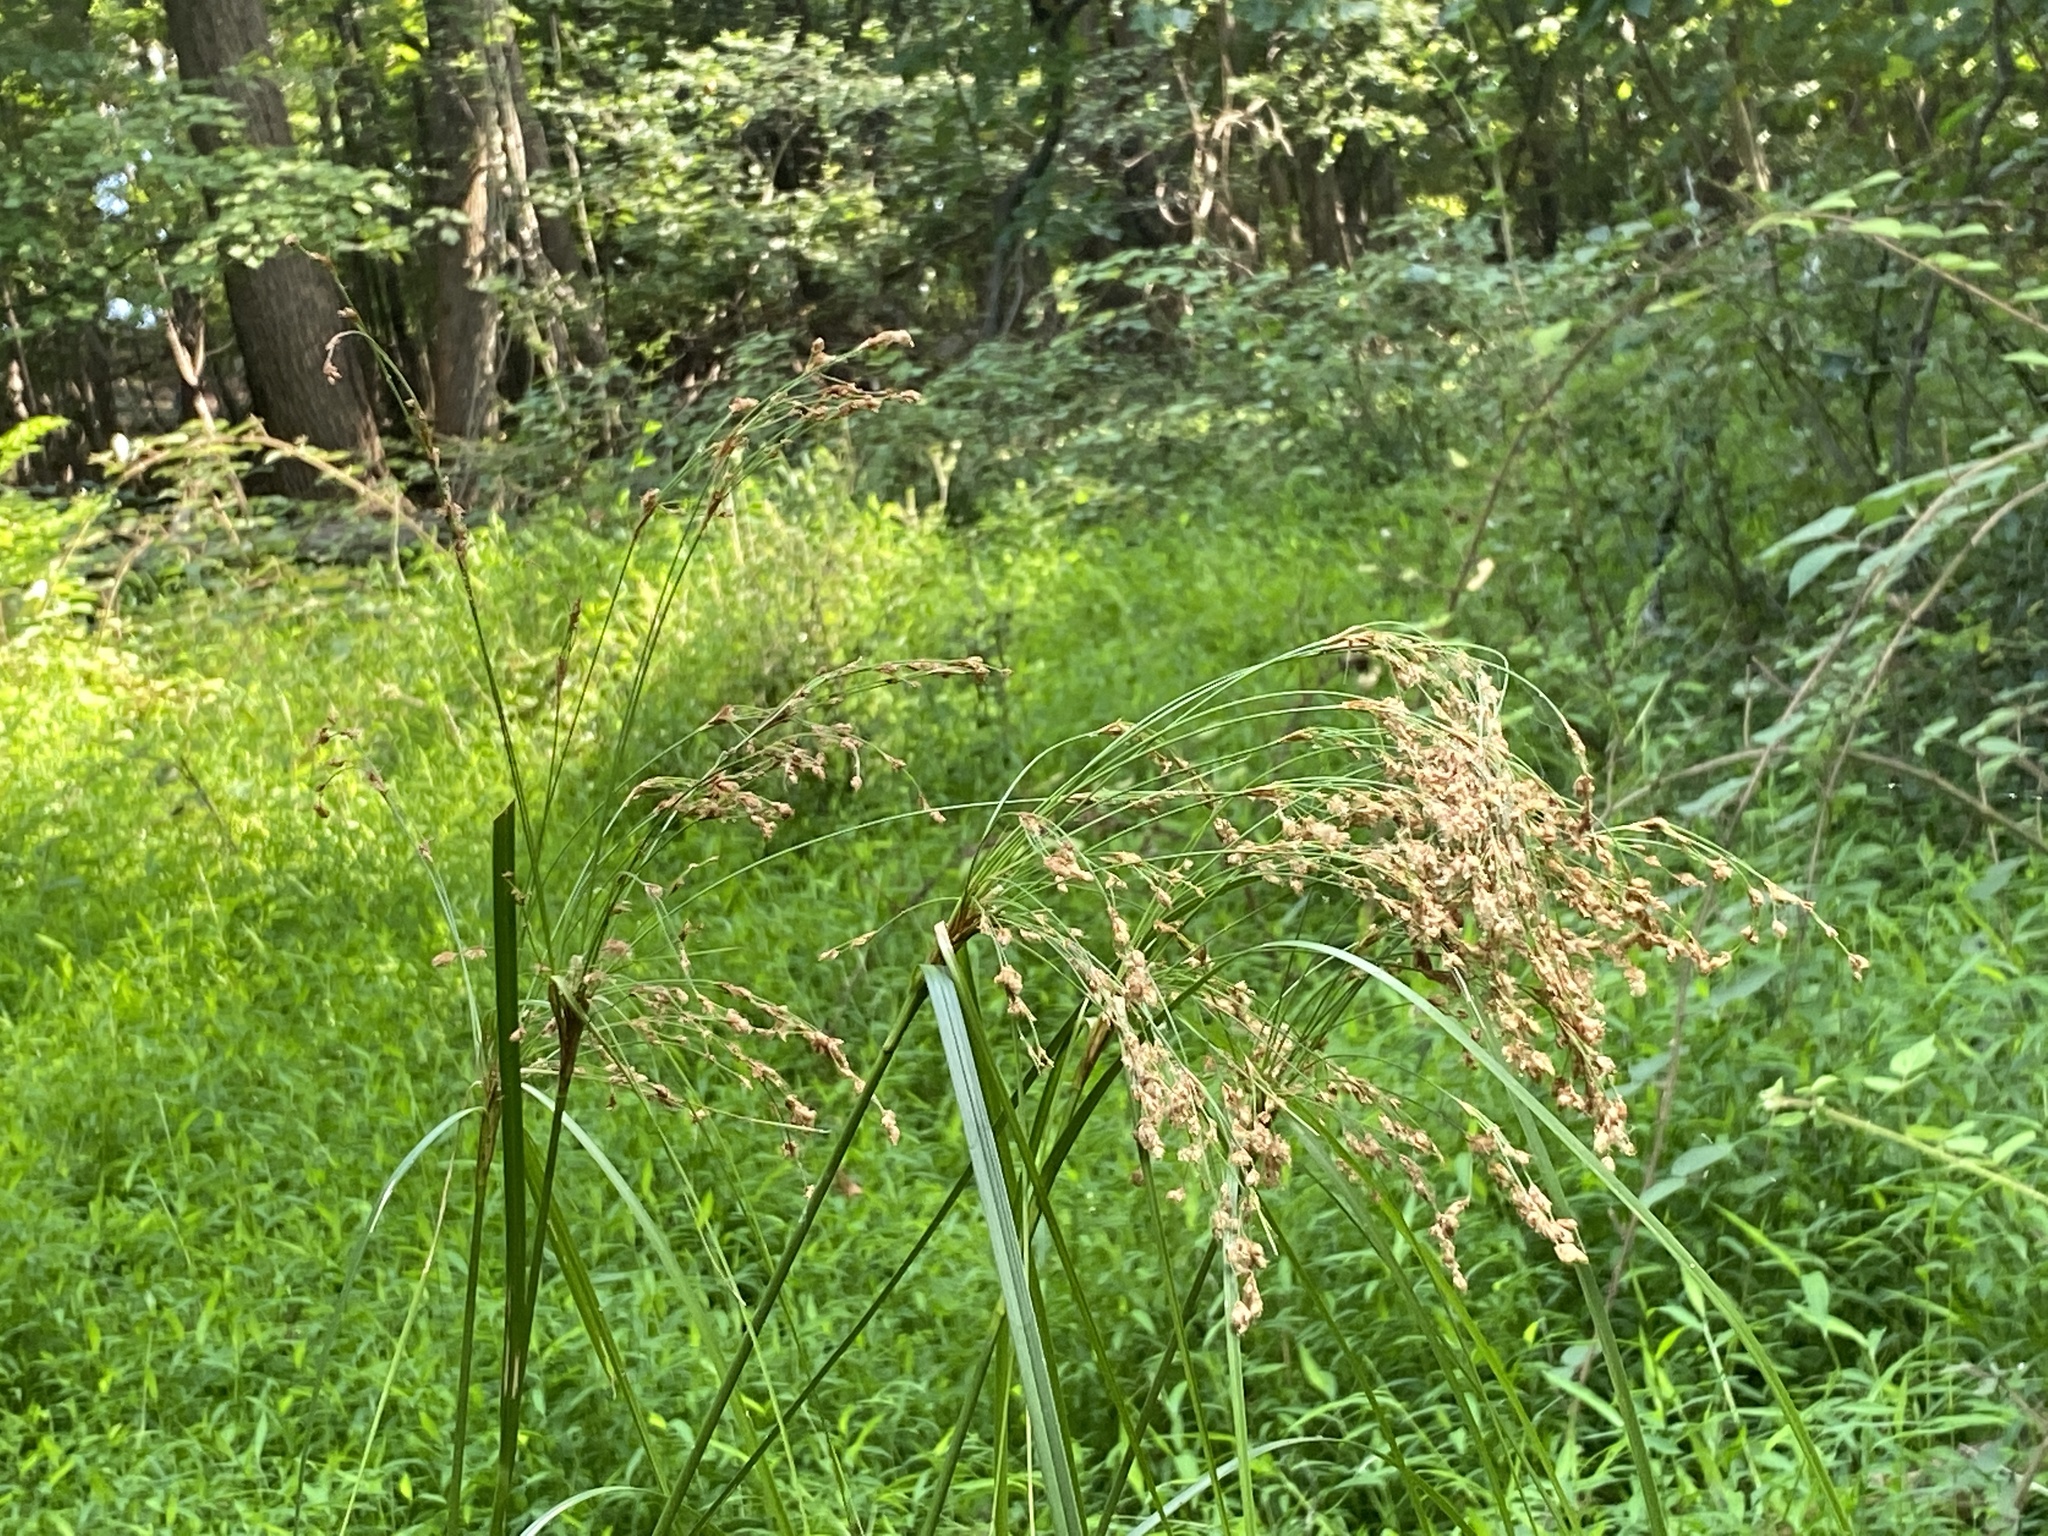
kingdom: Plantae
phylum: Tracheophyta
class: Liliopsida
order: Poales
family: Cyperaceae
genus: Scirpus
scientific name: Scirpus cyperinus
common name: Black-sheathed bulrush
